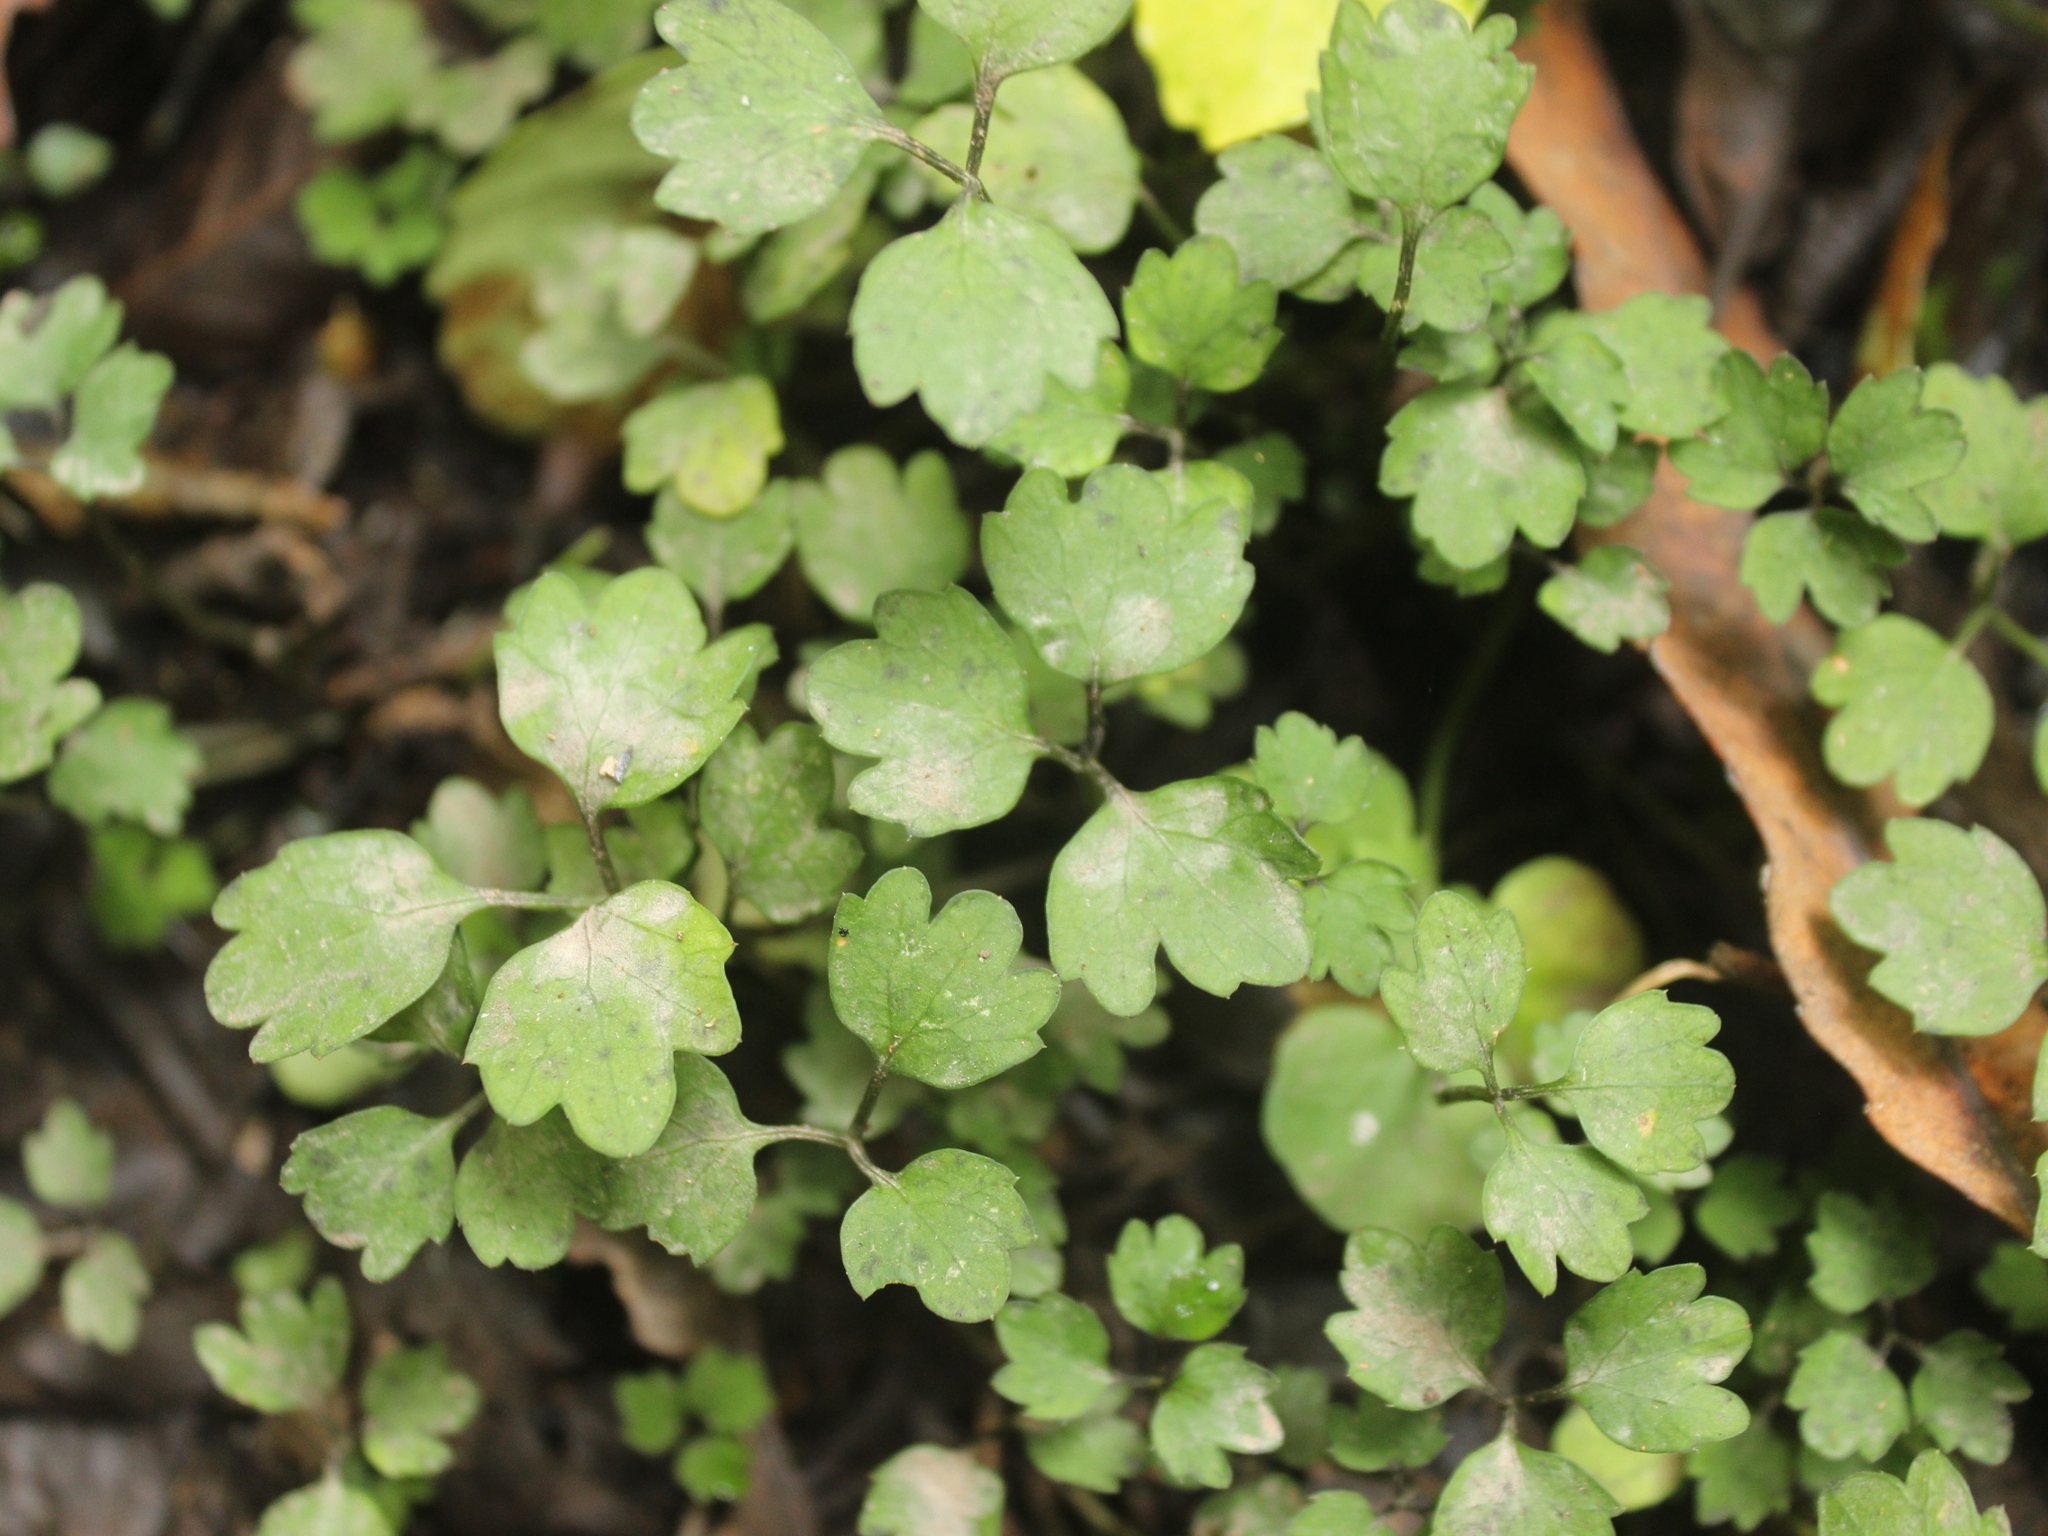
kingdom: Plantae
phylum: Tracheophyta
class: Magnoliopsida
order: Apiales
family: Apiaceae
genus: Azorella
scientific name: Azorella hookeri
